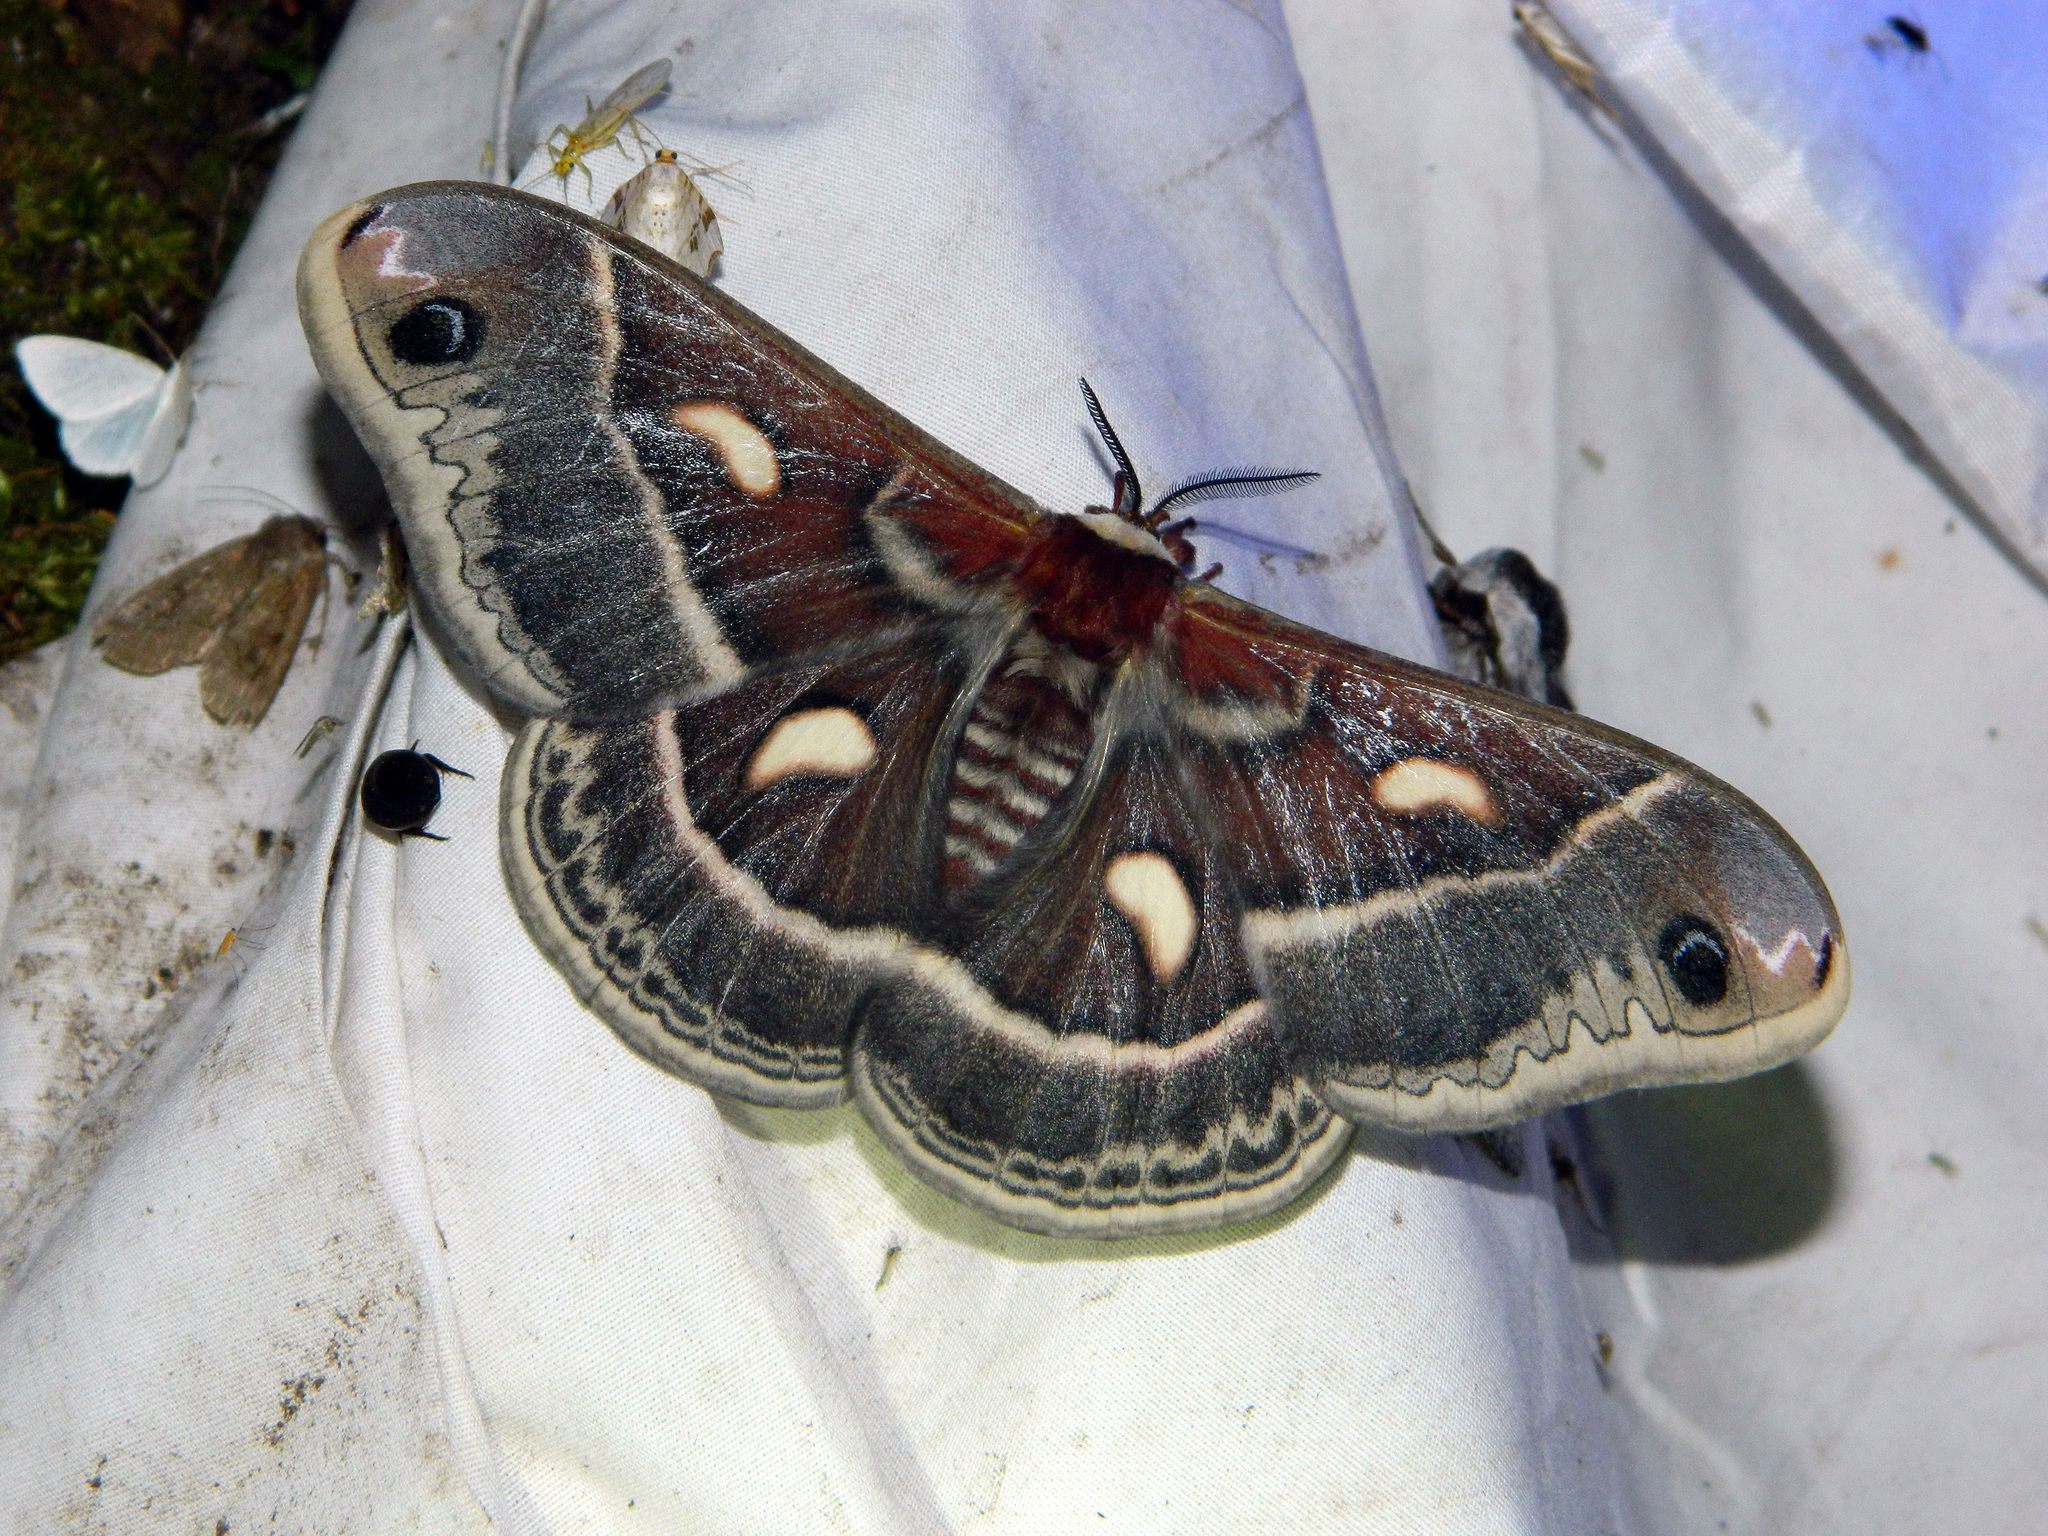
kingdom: Animalia
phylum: Arthropoda
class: Insecta
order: Lepidoptera
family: Saturniidae
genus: Hyalophora
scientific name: Hyalophora columbia
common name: Columbia silkmoth
